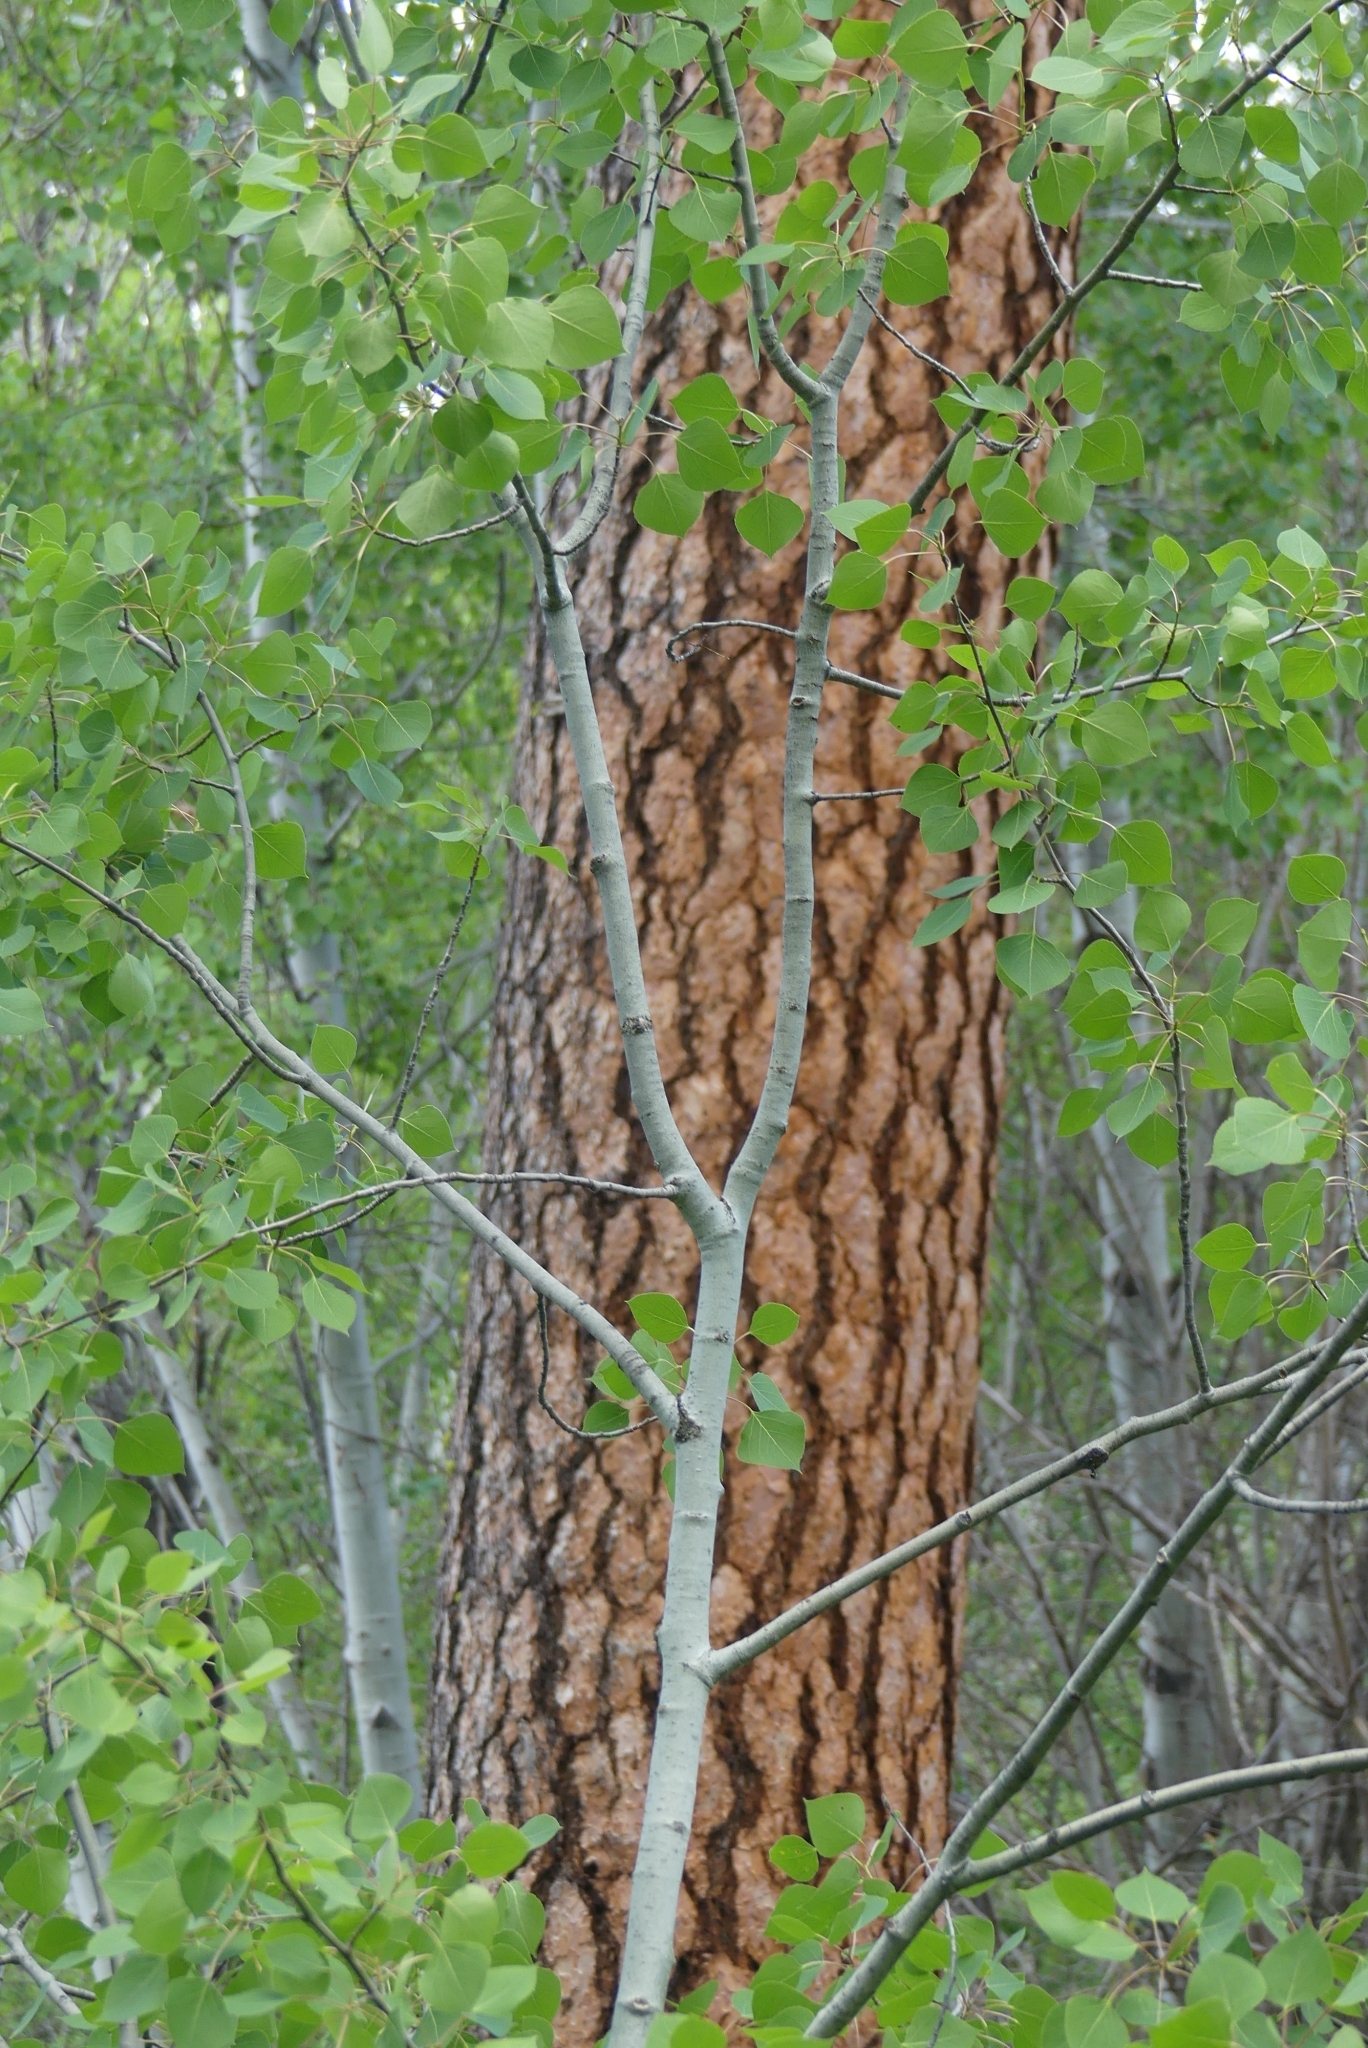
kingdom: Plantae
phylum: Tracheophyta
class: Pinopsida
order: Pinales
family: Pinaceae
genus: Pinus
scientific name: Pinus ponderosa
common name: Western yellow-pine
